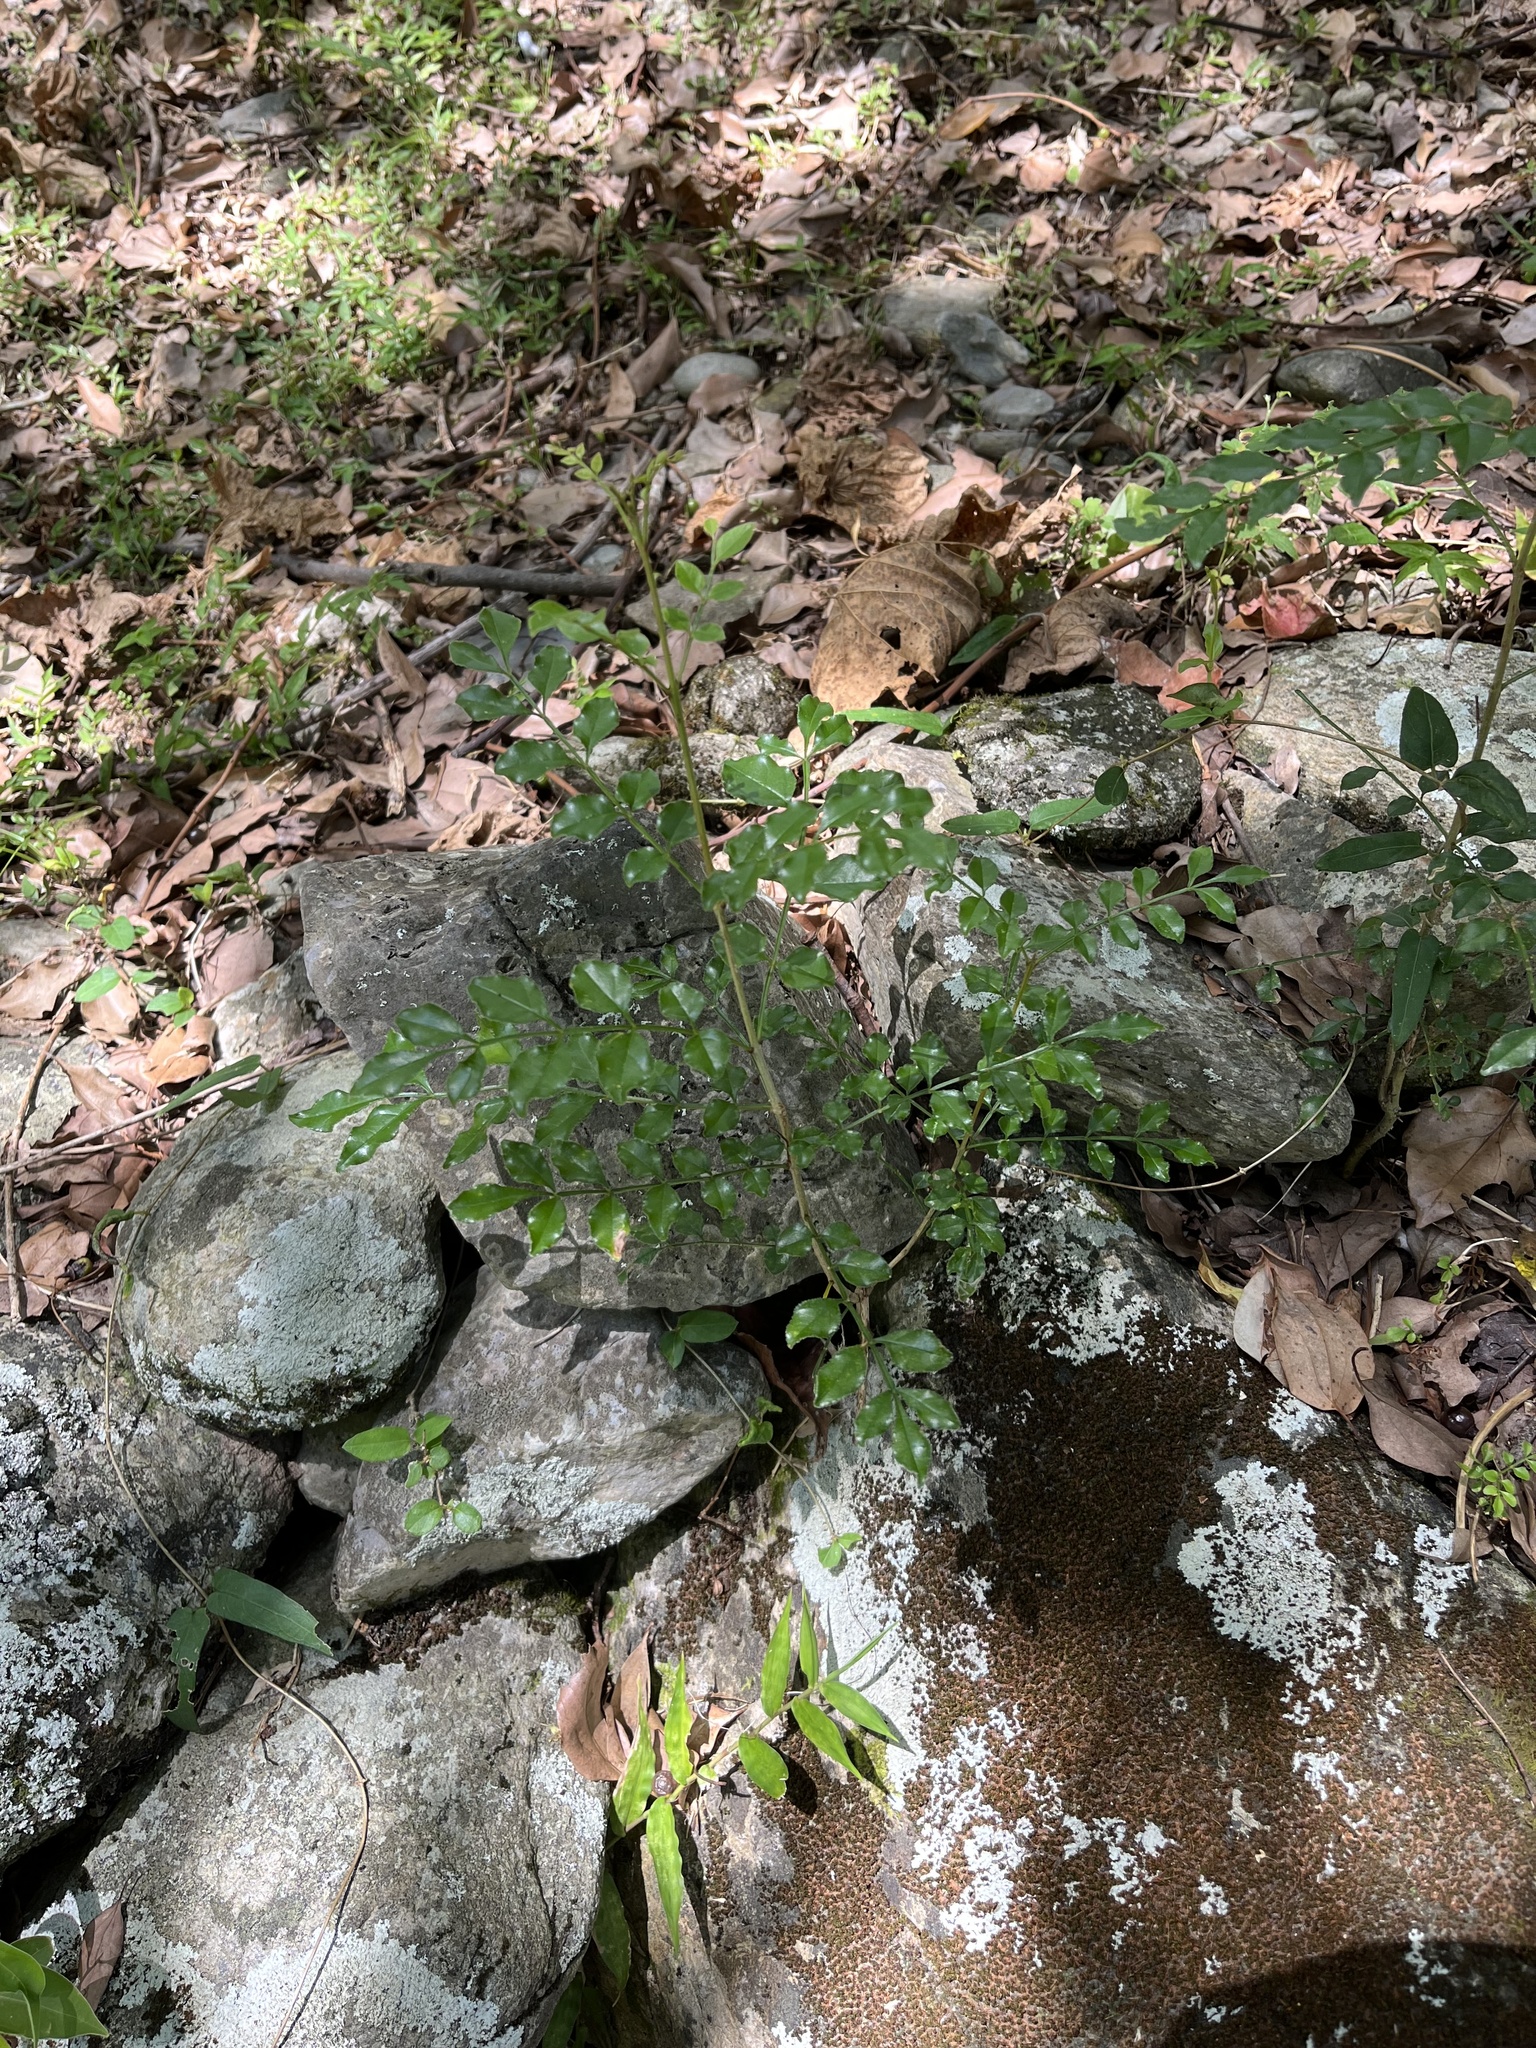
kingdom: Plantae
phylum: Tracheophyta
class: Magnoliopsida
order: Lamiales
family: Oleaceae
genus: Fraxinus
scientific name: Fraxinus griffithii
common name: Himalayan ash
